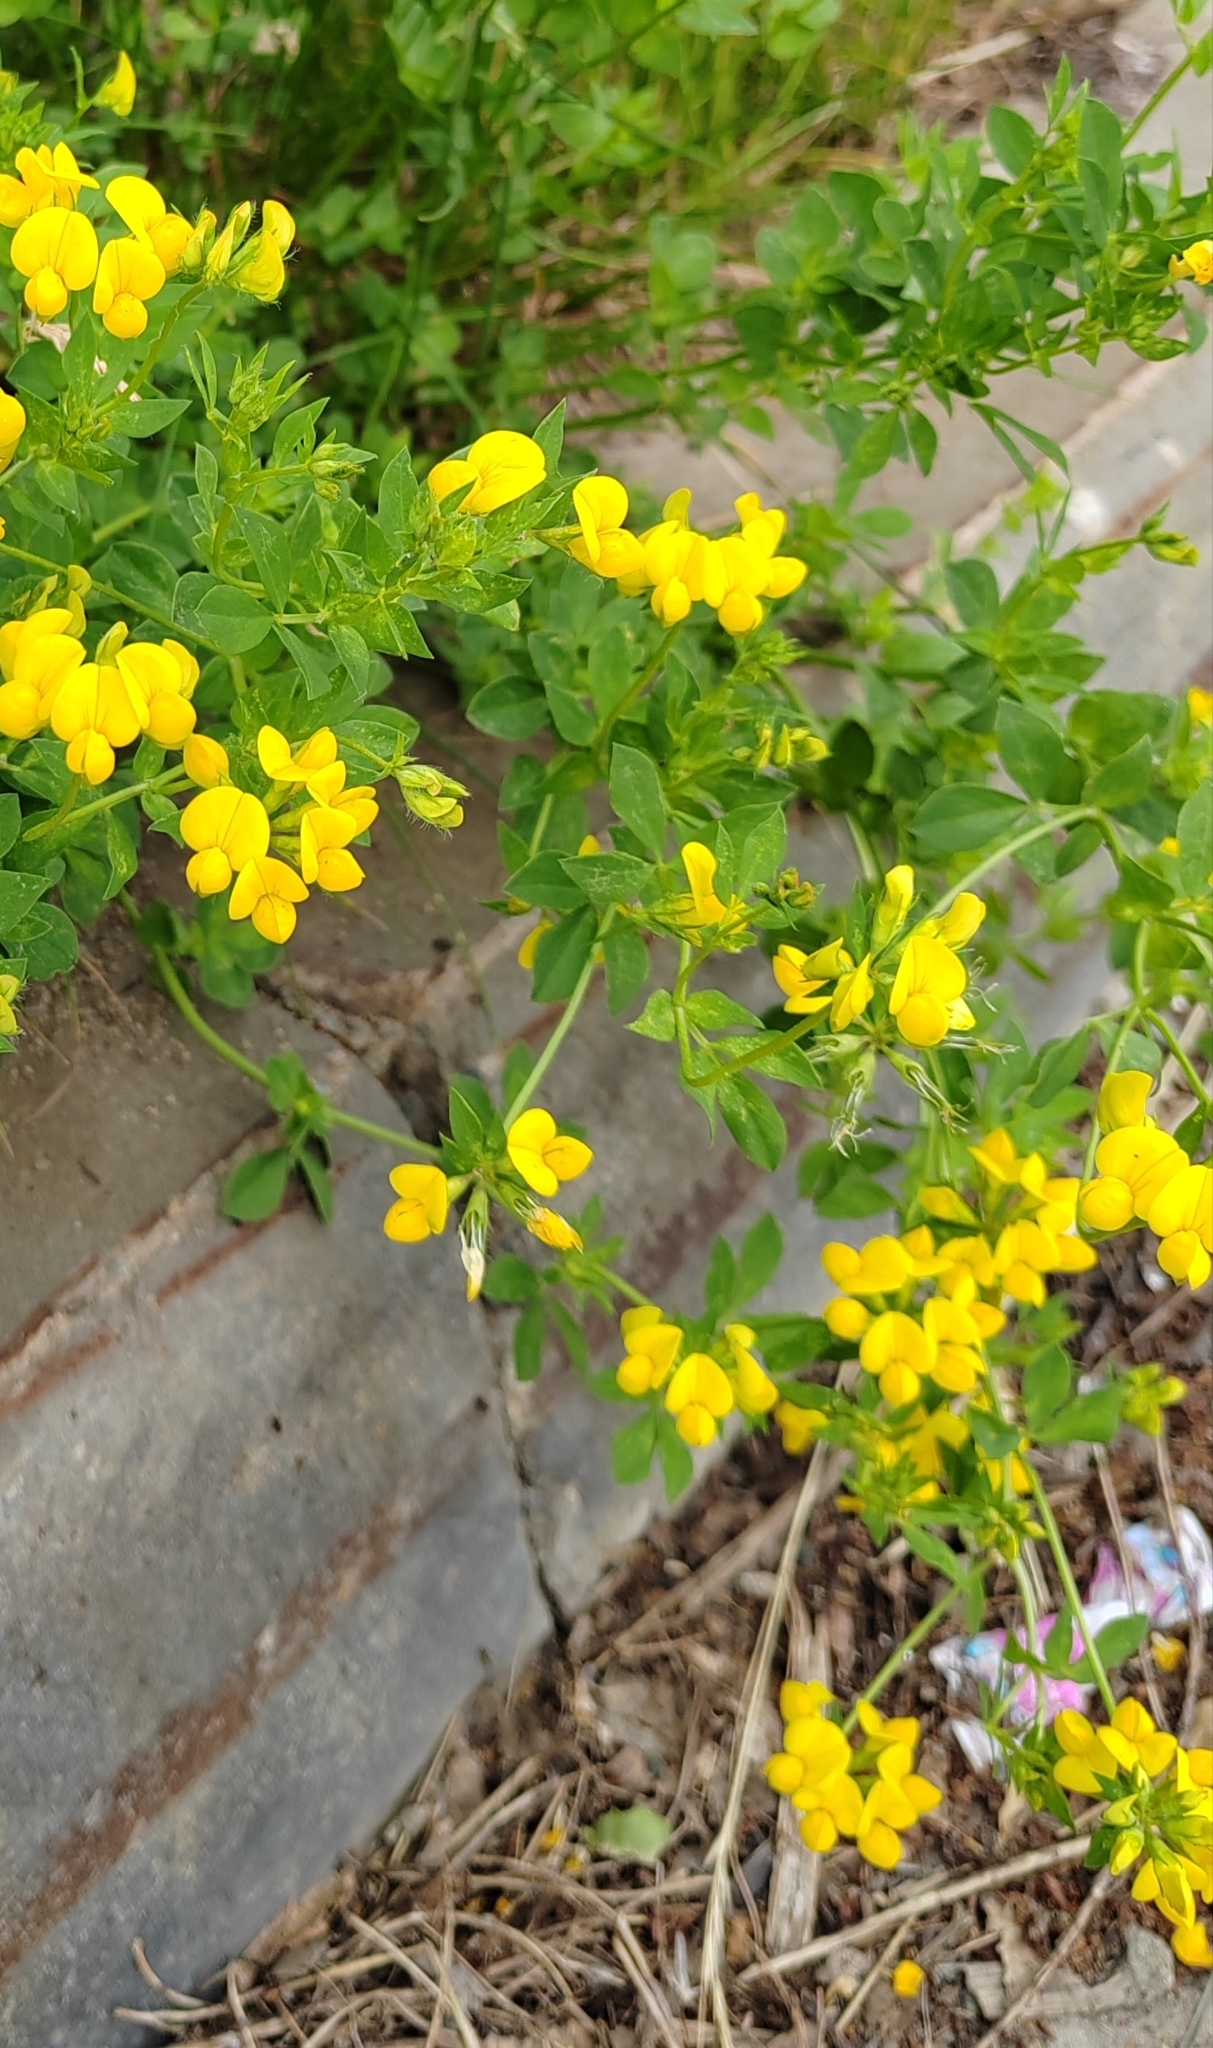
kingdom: Plantae
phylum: Tracheophyta
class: Magnoliopsida
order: Fabales
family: Fabaceae
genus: Lotus
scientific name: Lotus corniculatus
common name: Common bird's-foot-trefoil
